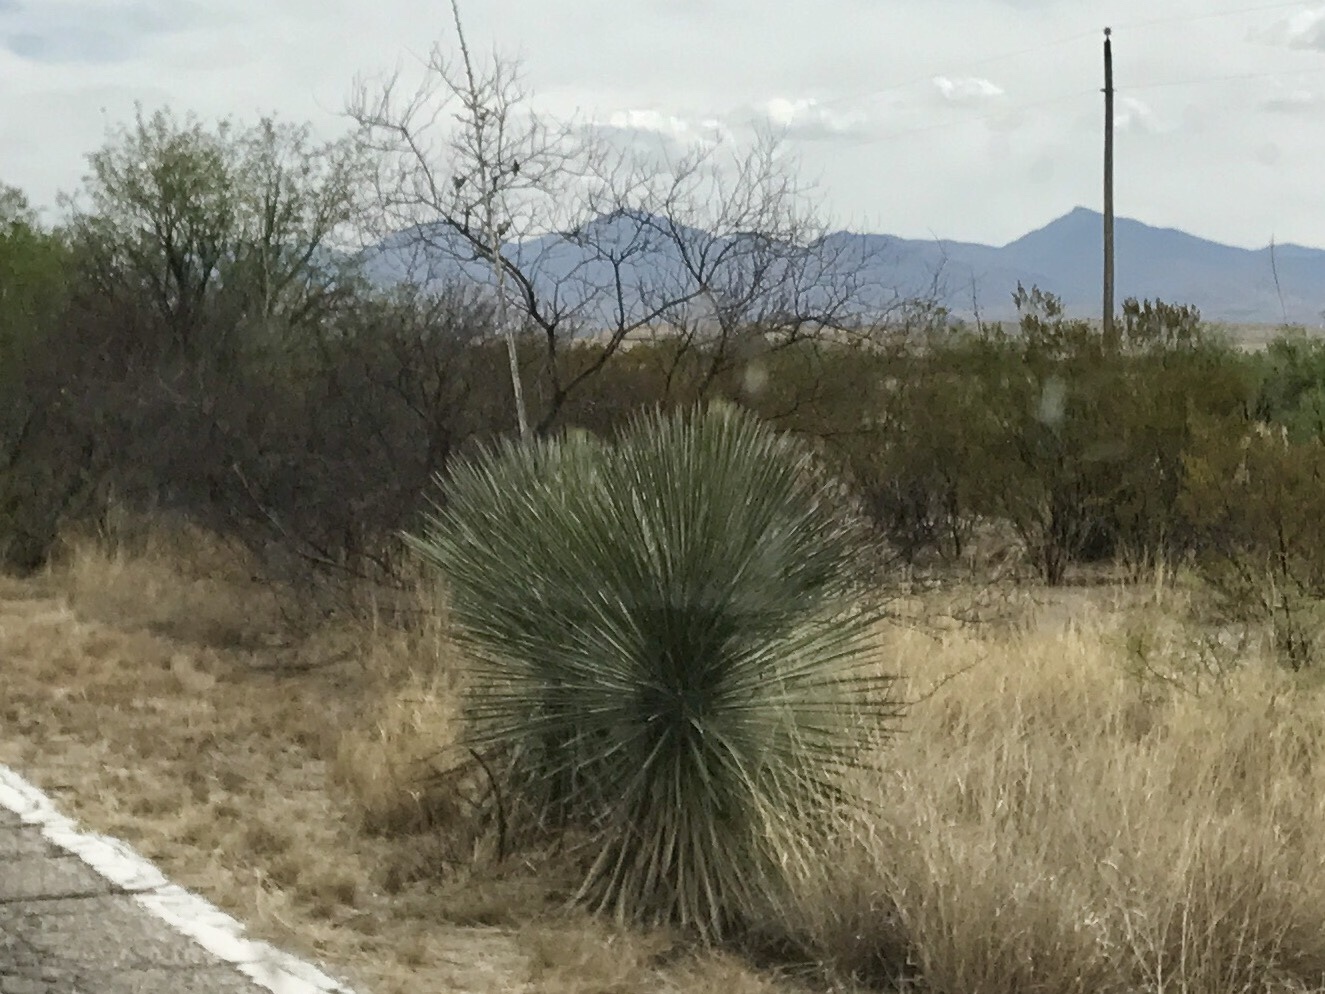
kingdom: Plantae
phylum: Tracheophyta
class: Liliopsida
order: Asparagales
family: Asparagaceae
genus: Yucca
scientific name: Yucca elata
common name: Palmella
